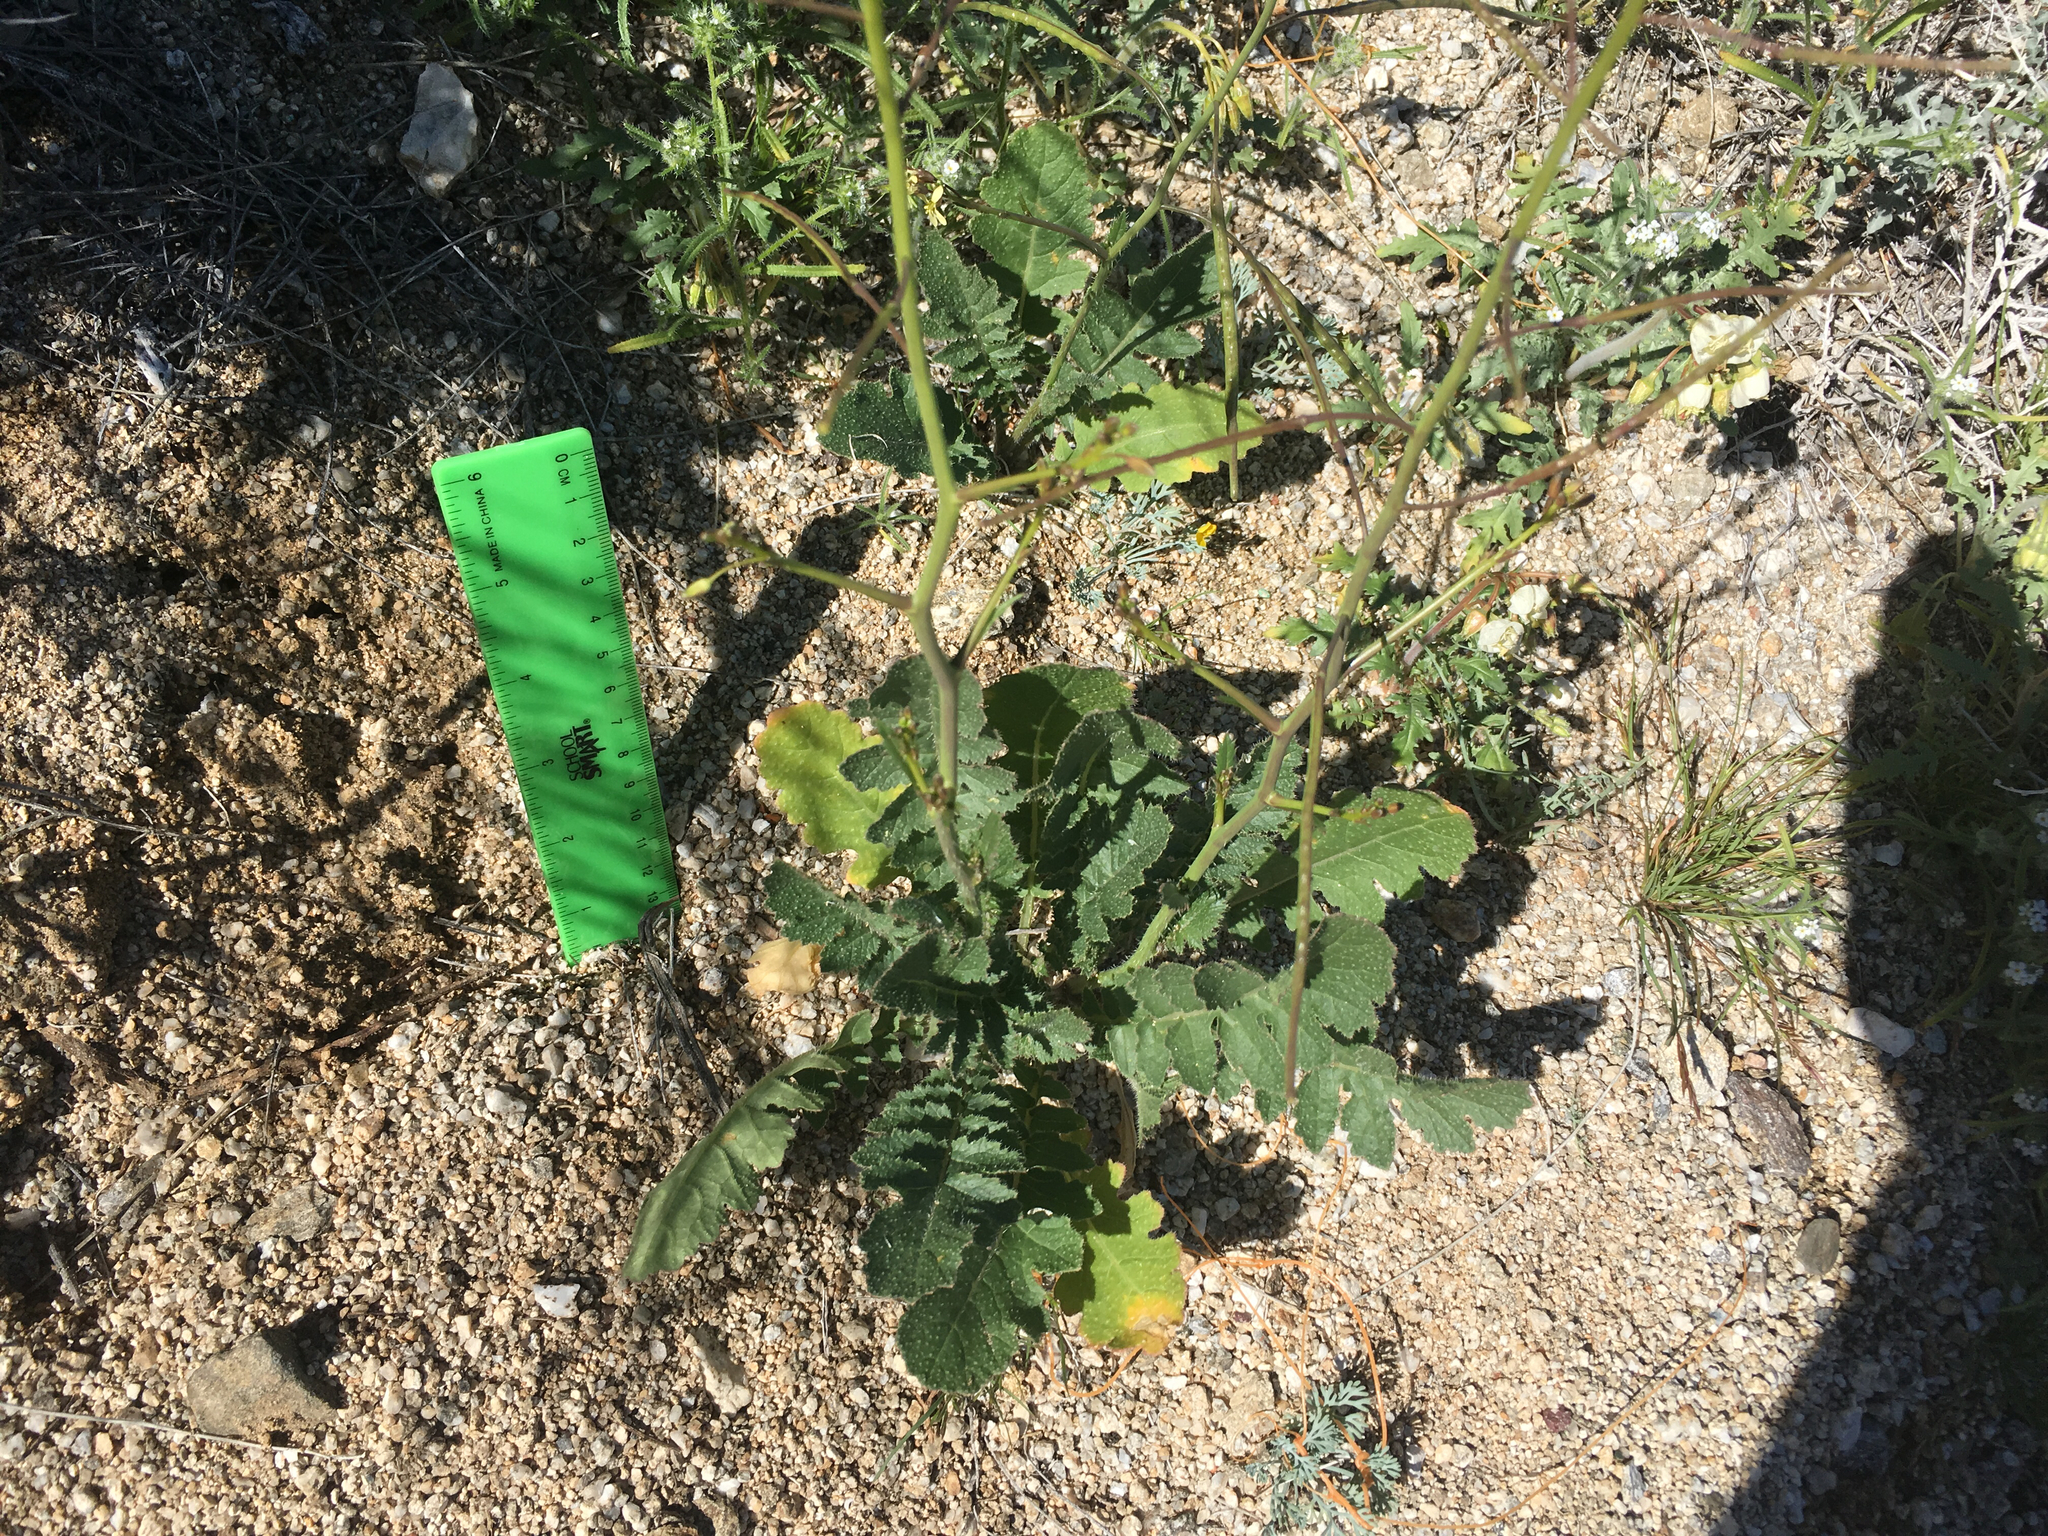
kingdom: Plantae
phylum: Tracheophyta
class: Magnoliopsida
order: Brassicales
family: Brassicaceae
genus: Brassica
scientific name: Brassica tournefortii
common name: Pale cabbage
